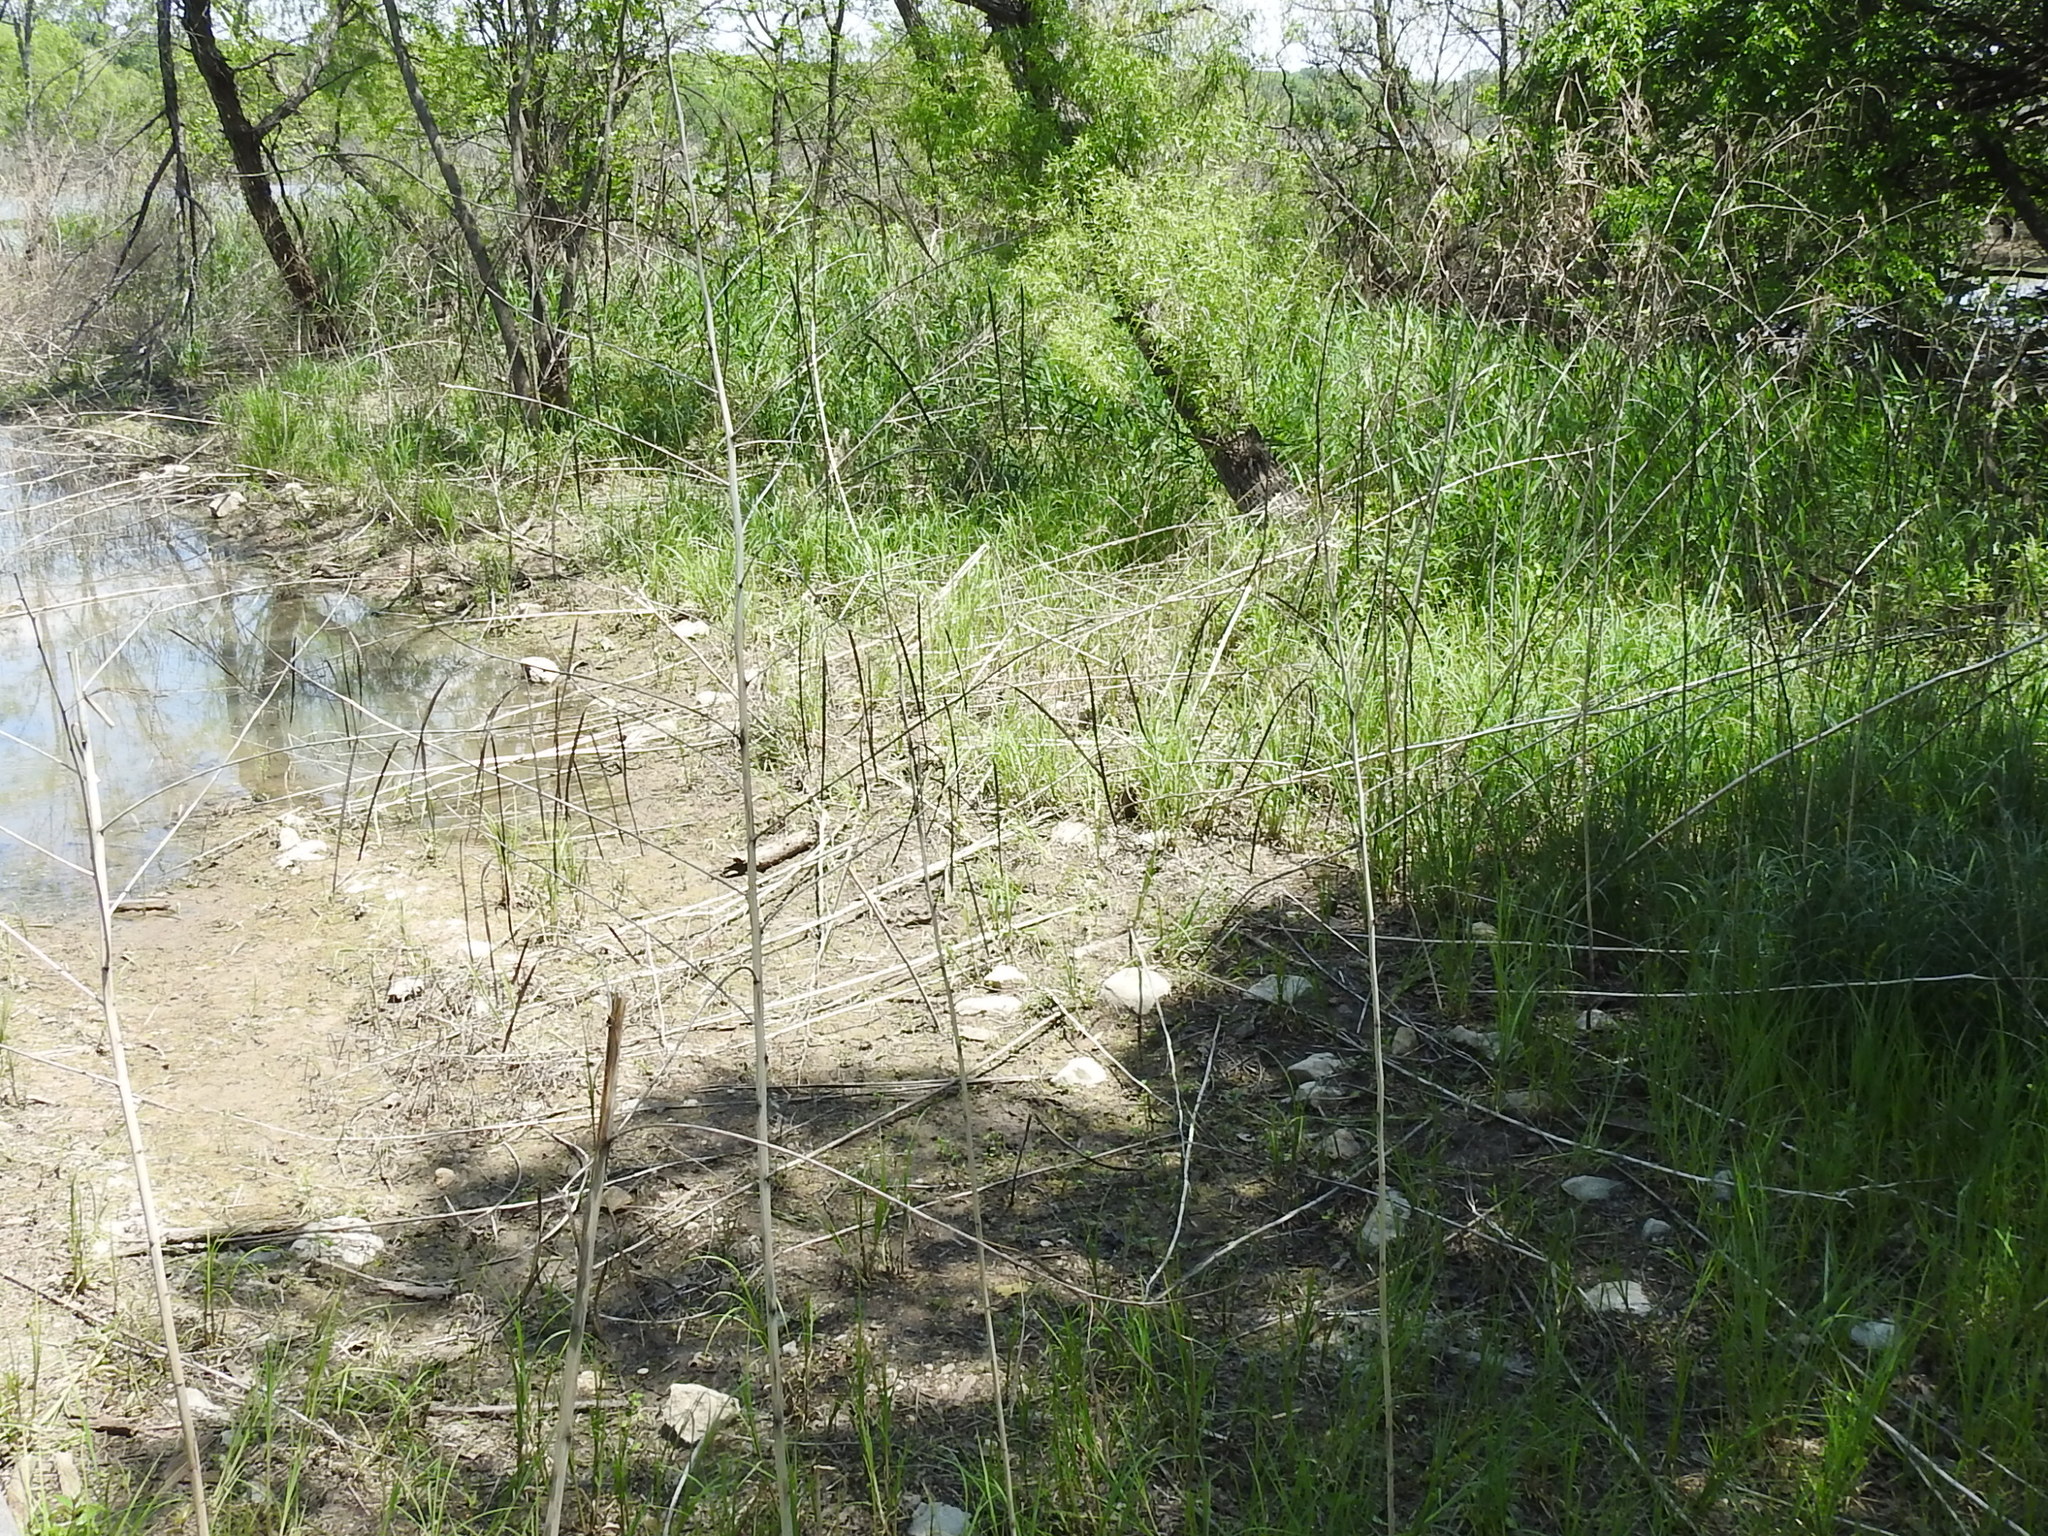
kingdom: Plantae
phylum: Tracheophyta
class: Magnoliopsida
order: Fabales
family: Fabaceae
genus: Sesbania
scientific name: Sesbania herbacea
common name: Bigpod sesbania
